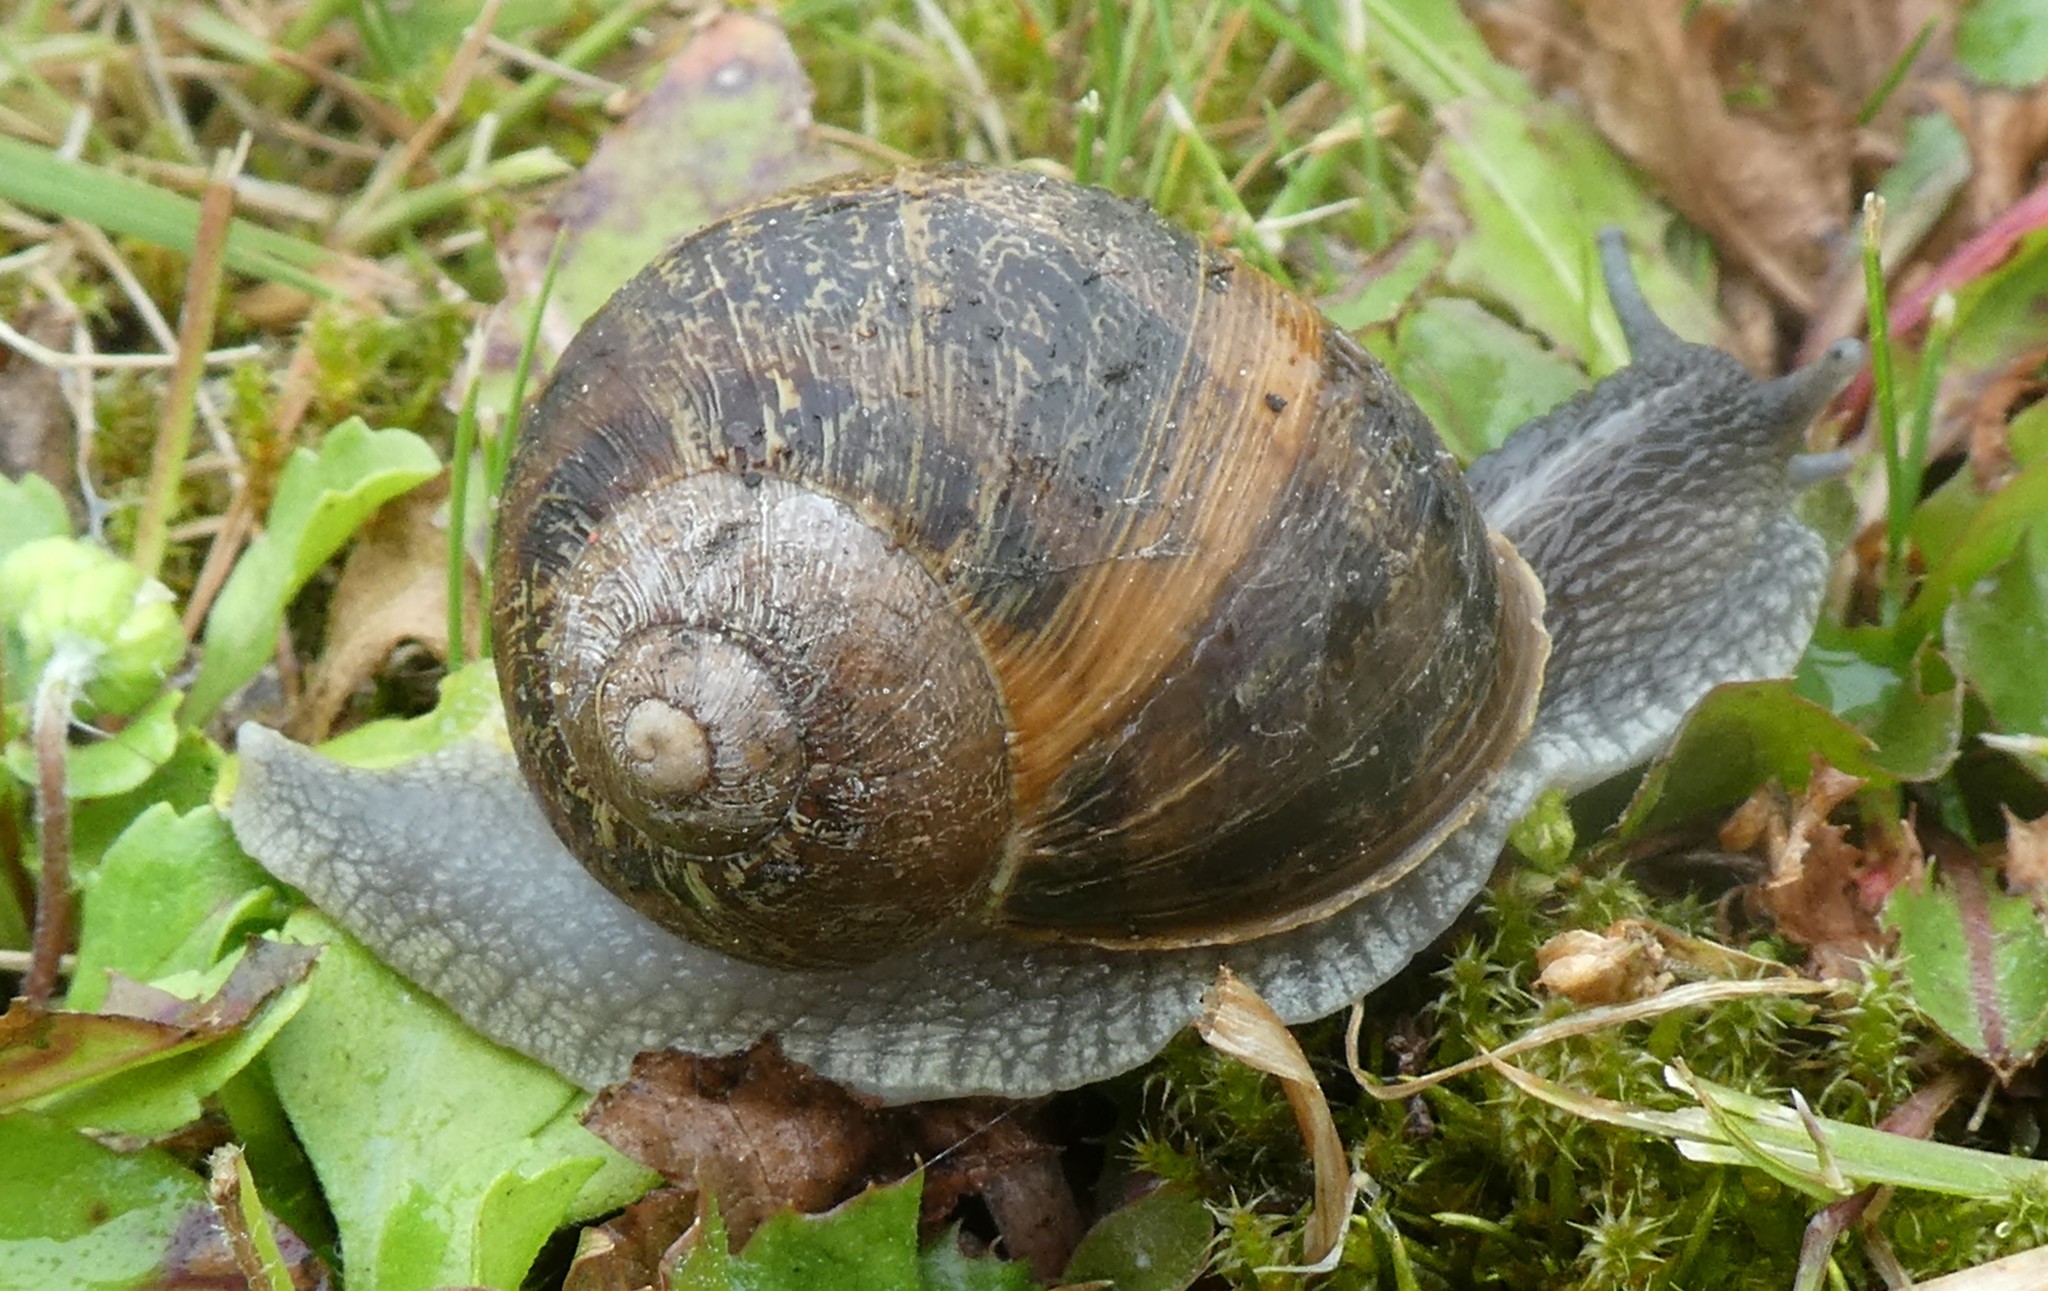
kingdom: Animalia
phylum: Mollusca
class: Gastropoda
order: Stylommatophora
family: Helicidae
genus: Cornu
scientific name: Cornu aspersum
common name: Brown garden snail
